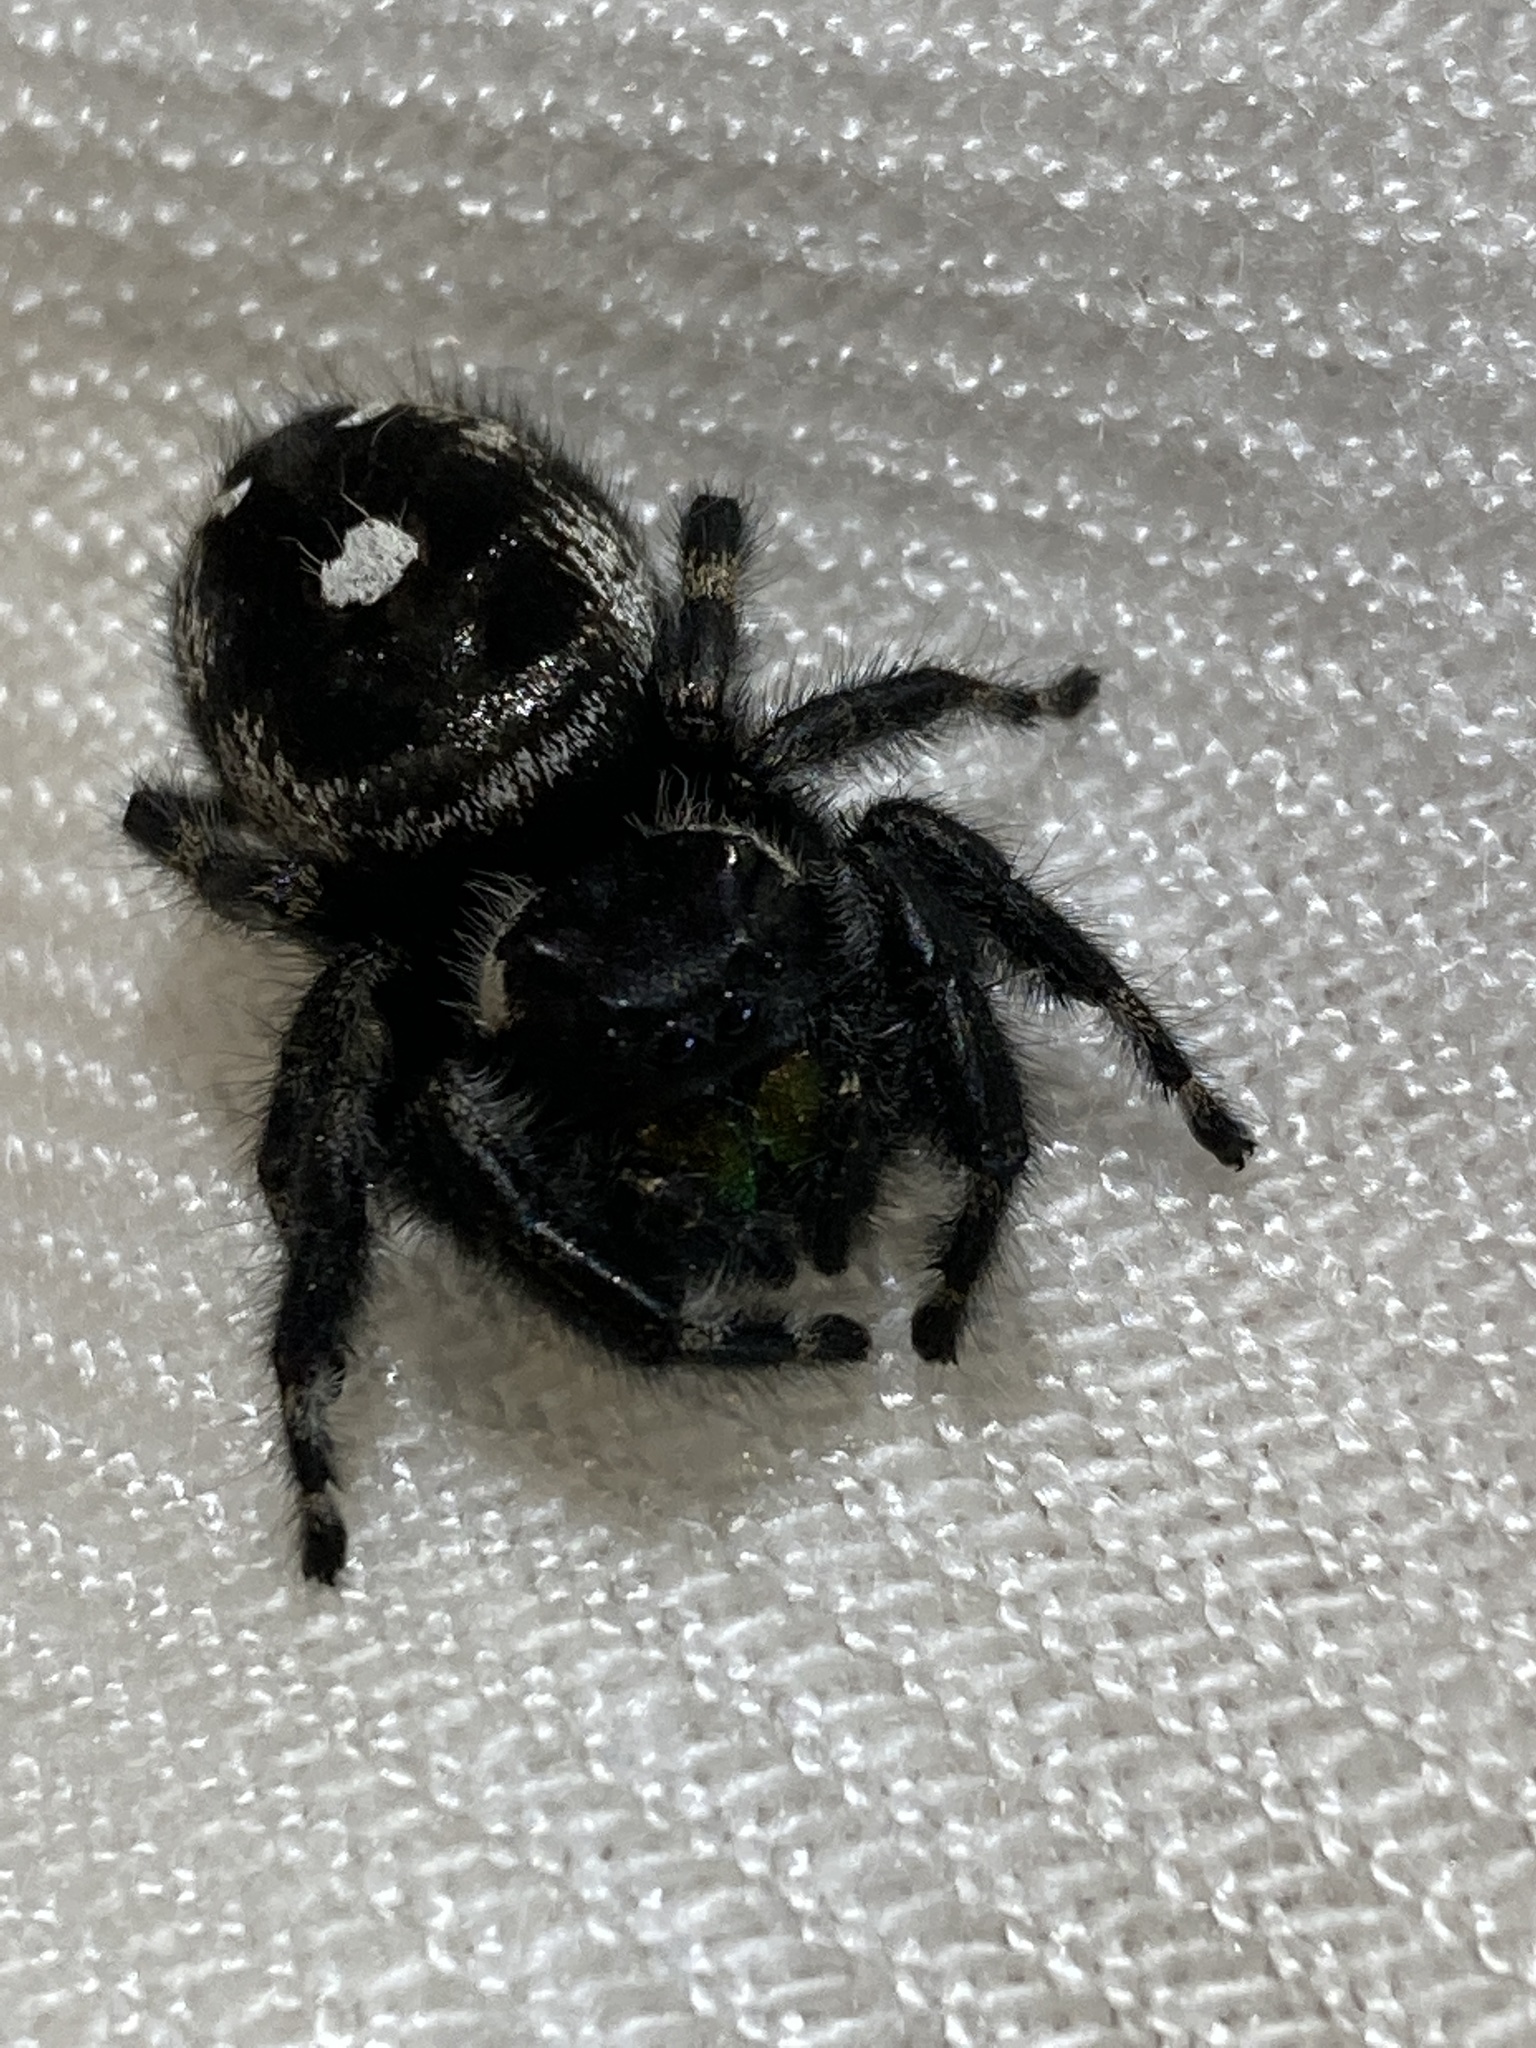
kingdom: Animalia
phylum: Arthropoda
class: Arachnida
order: Araneae
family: Salticidae
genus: Phidippus
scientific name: Phidippus audax
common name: Bold jumper
